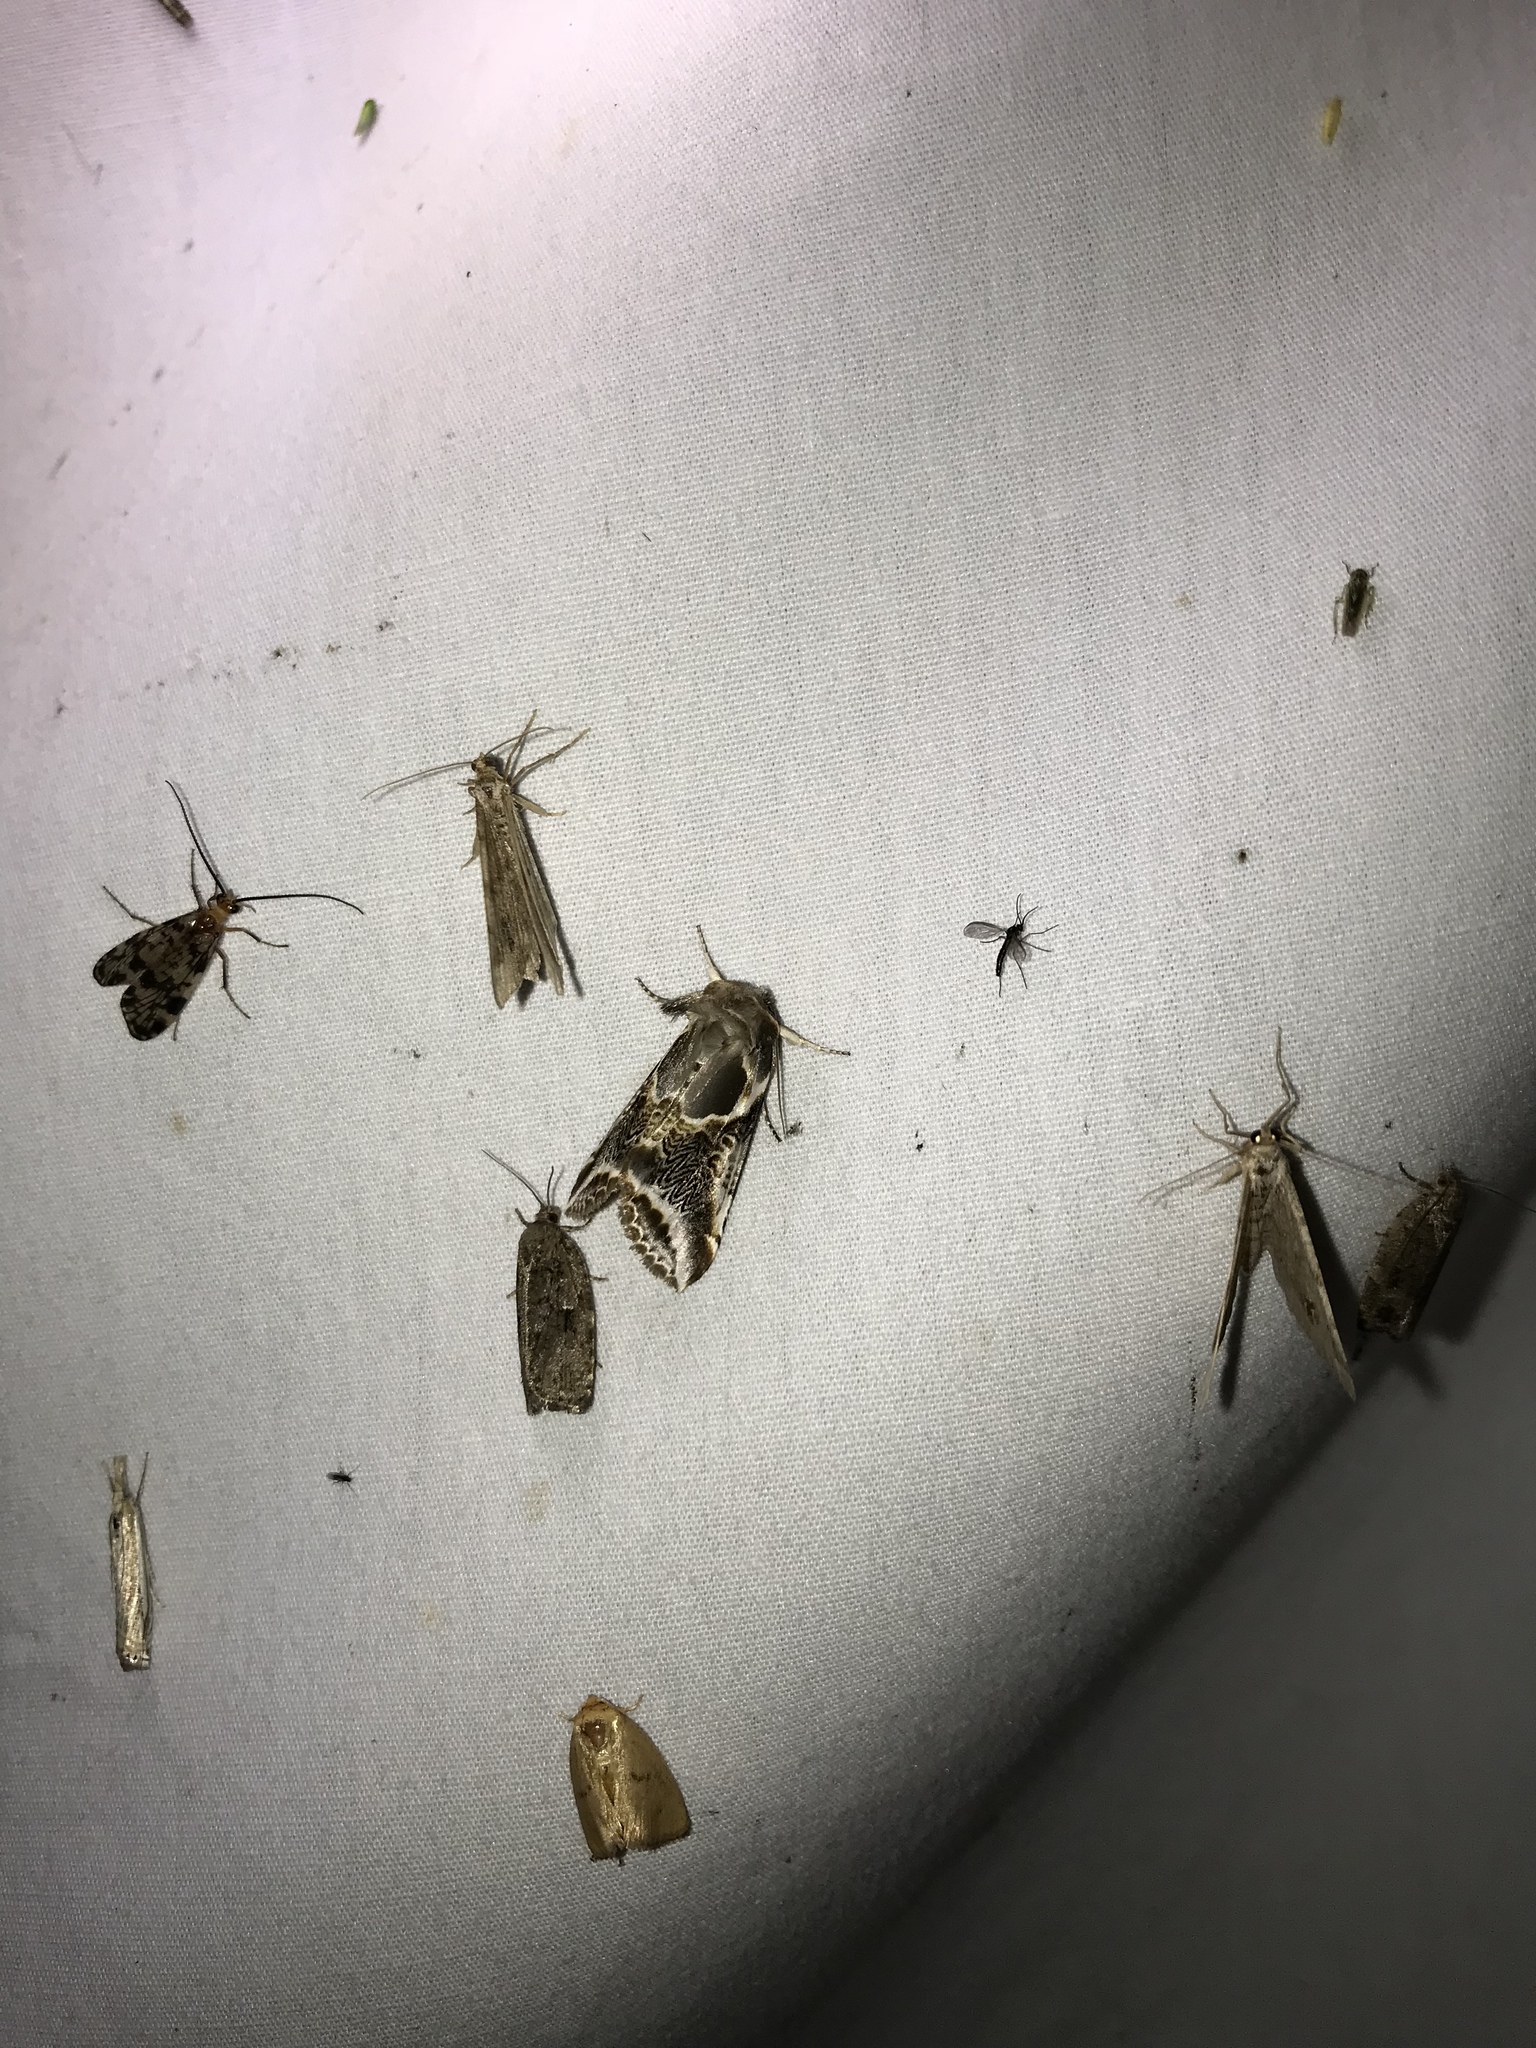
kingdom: Animalia
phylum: Arthropoda
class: Insecta
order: Lepidoptera
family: Drepanidae
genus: Habrosyne
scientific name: Habrosyne scripta
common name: Lettered habrosyne moth
